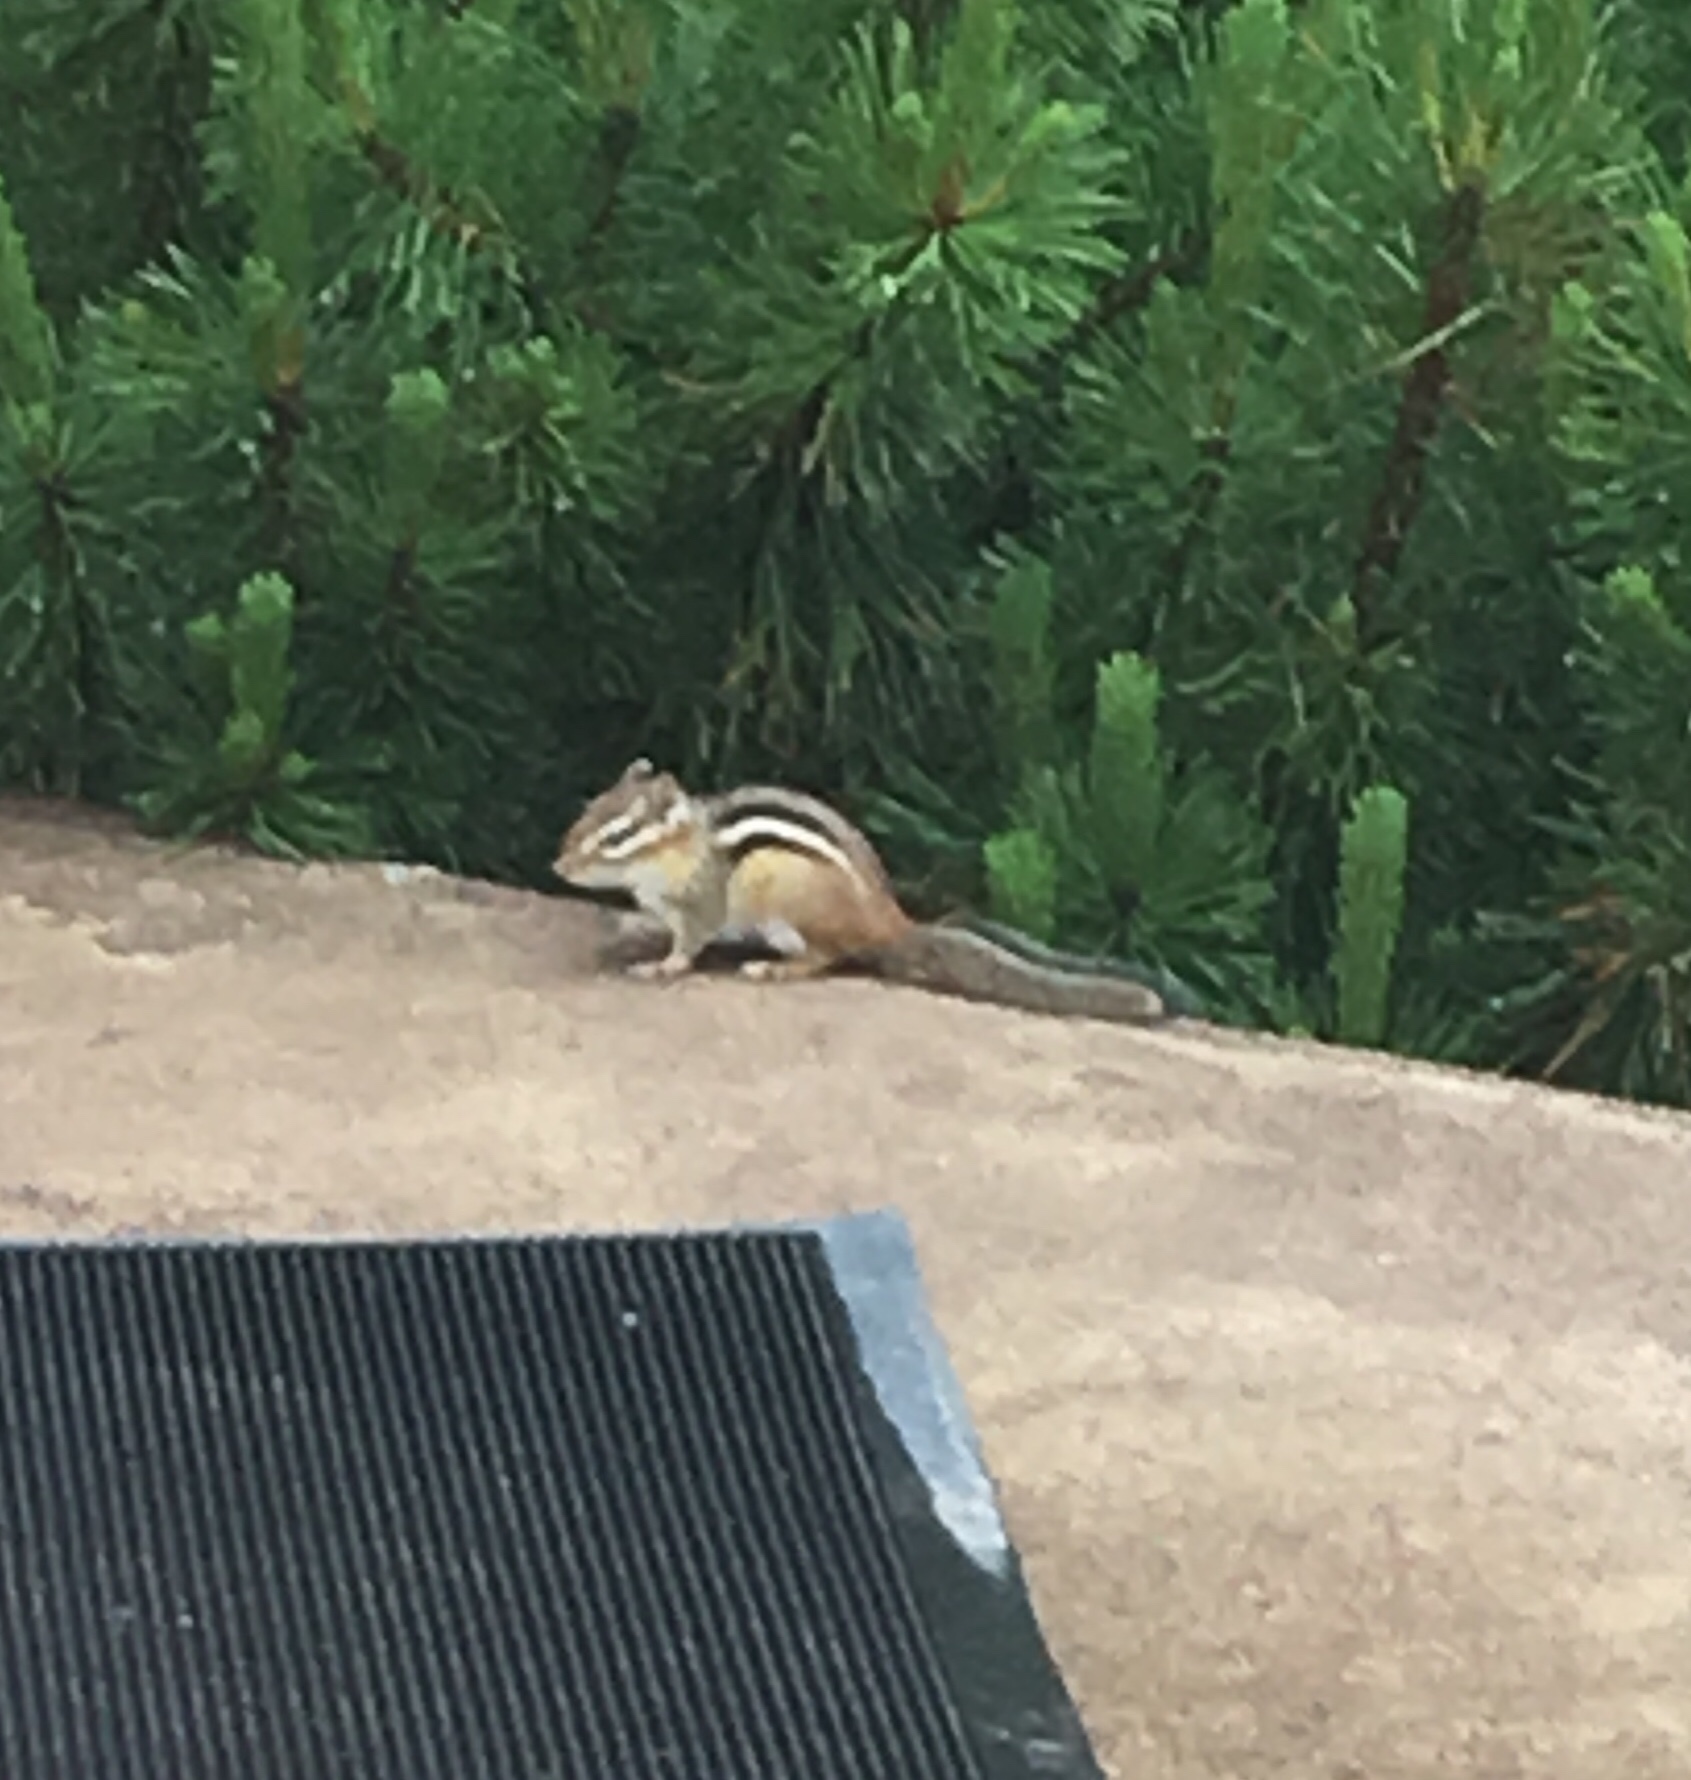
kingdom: Animalia
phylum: Chordata
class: Mammalia
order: Rodentia
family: Sciuridae
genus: Tamias
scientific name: Tamias minimus
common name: Least chipmunk
